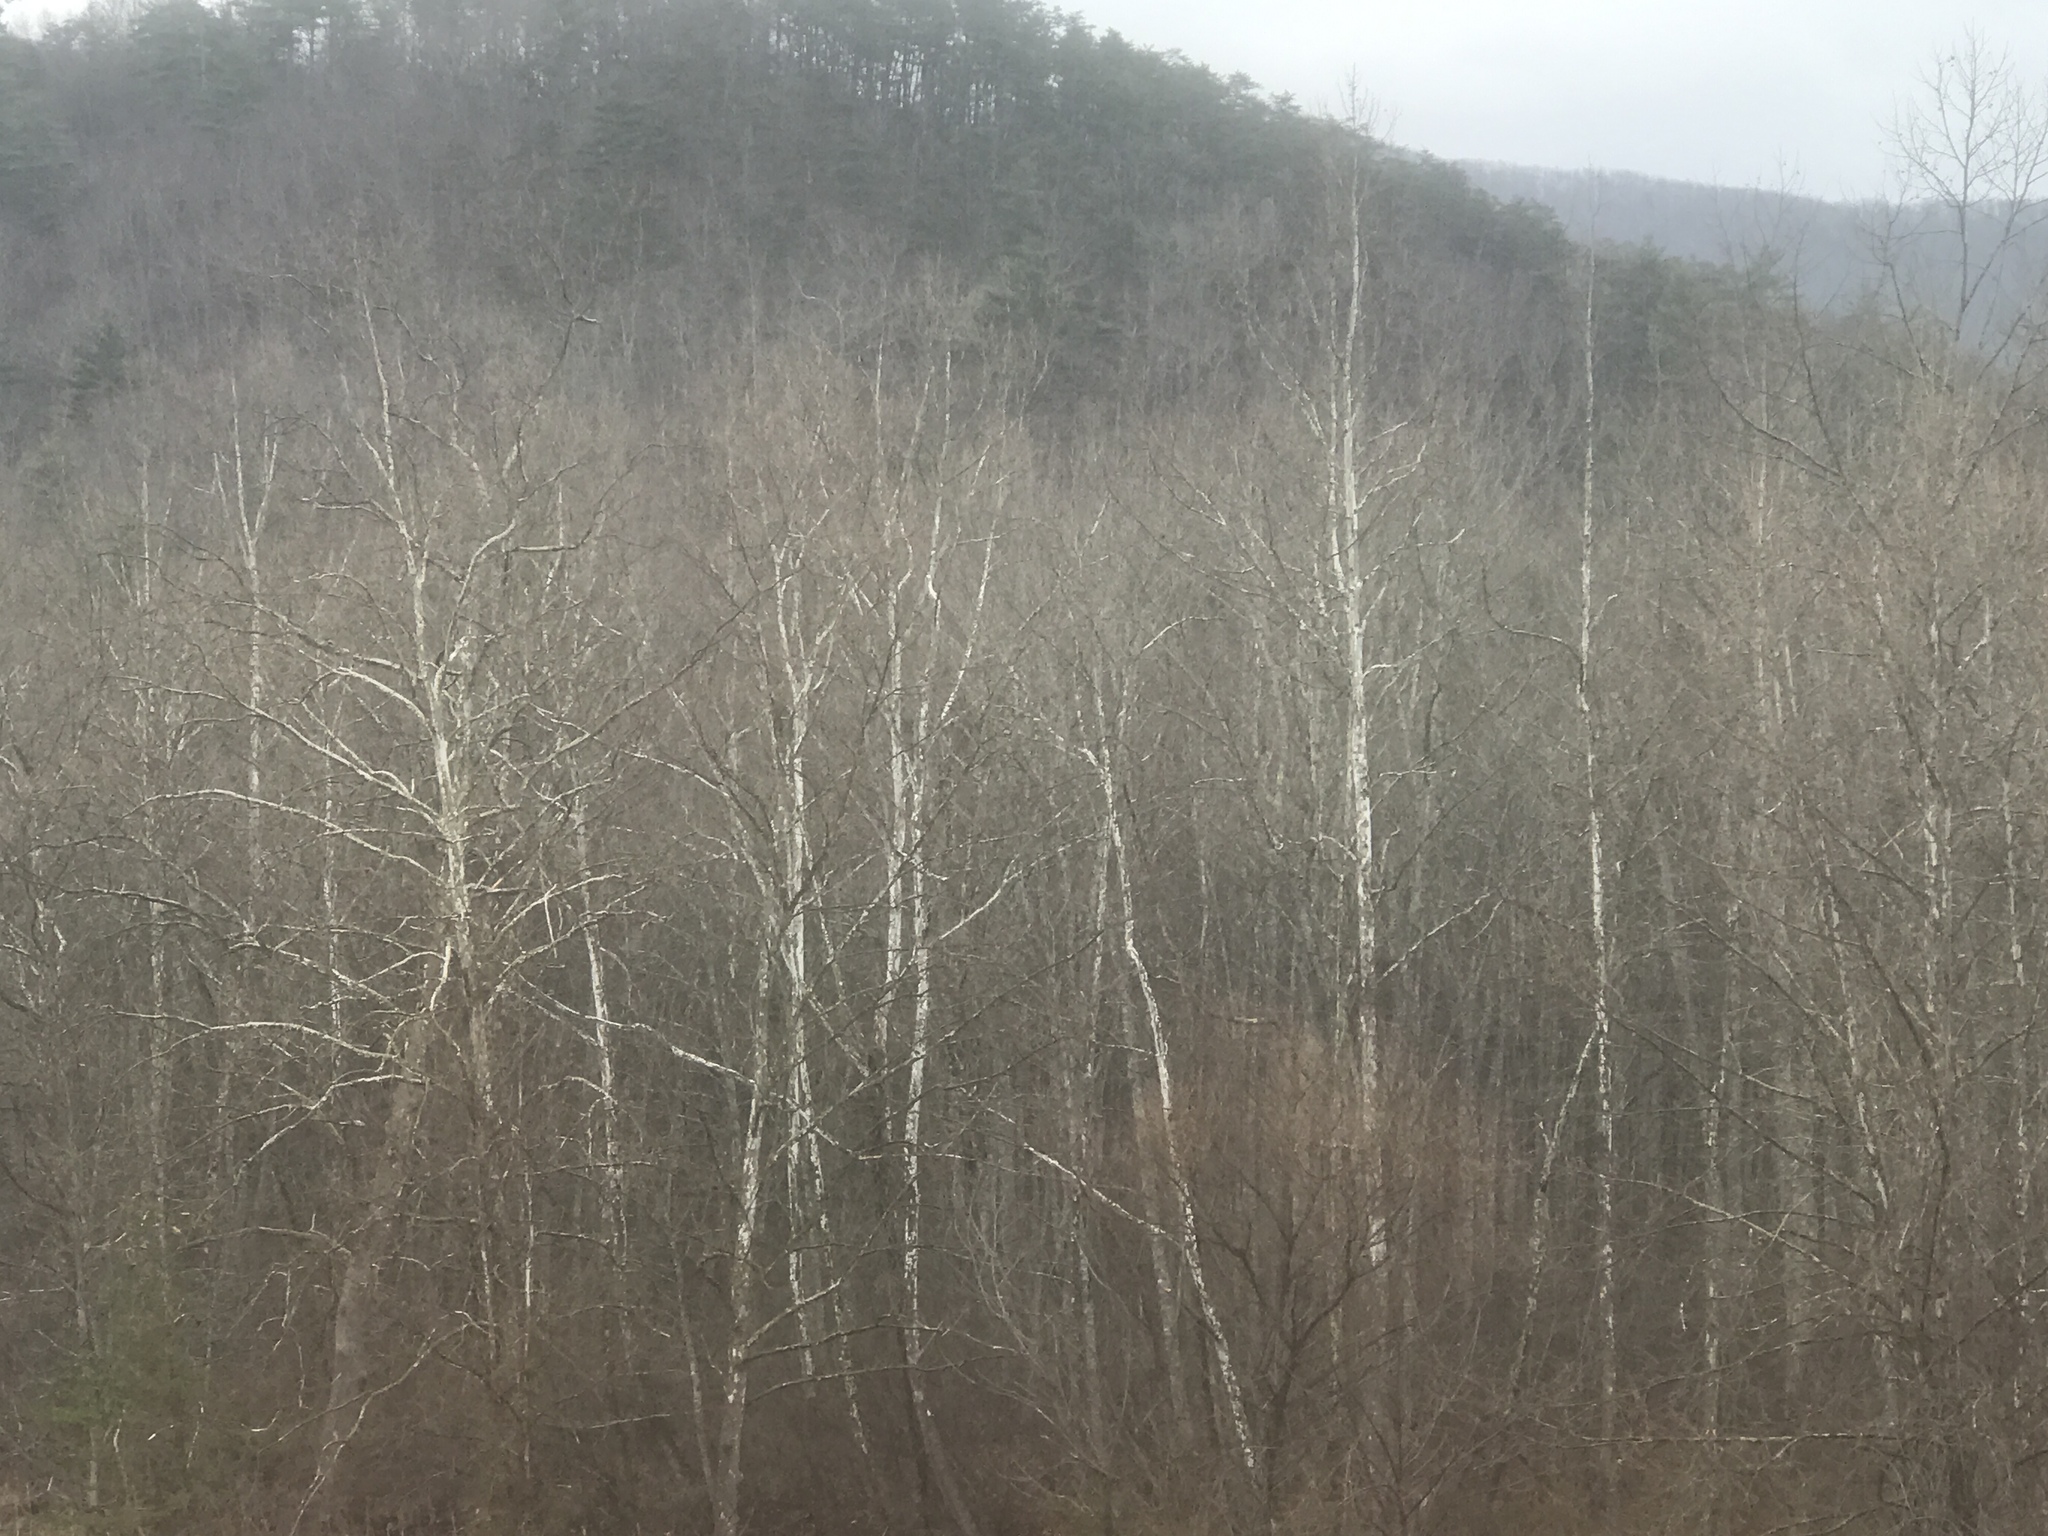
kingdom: Plantae
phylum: Tracheophyta
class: Magnoliopsida
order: Proteales
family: Platanaceae
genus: Platanus
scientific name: Platanus occidentalis
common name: American sycamore
